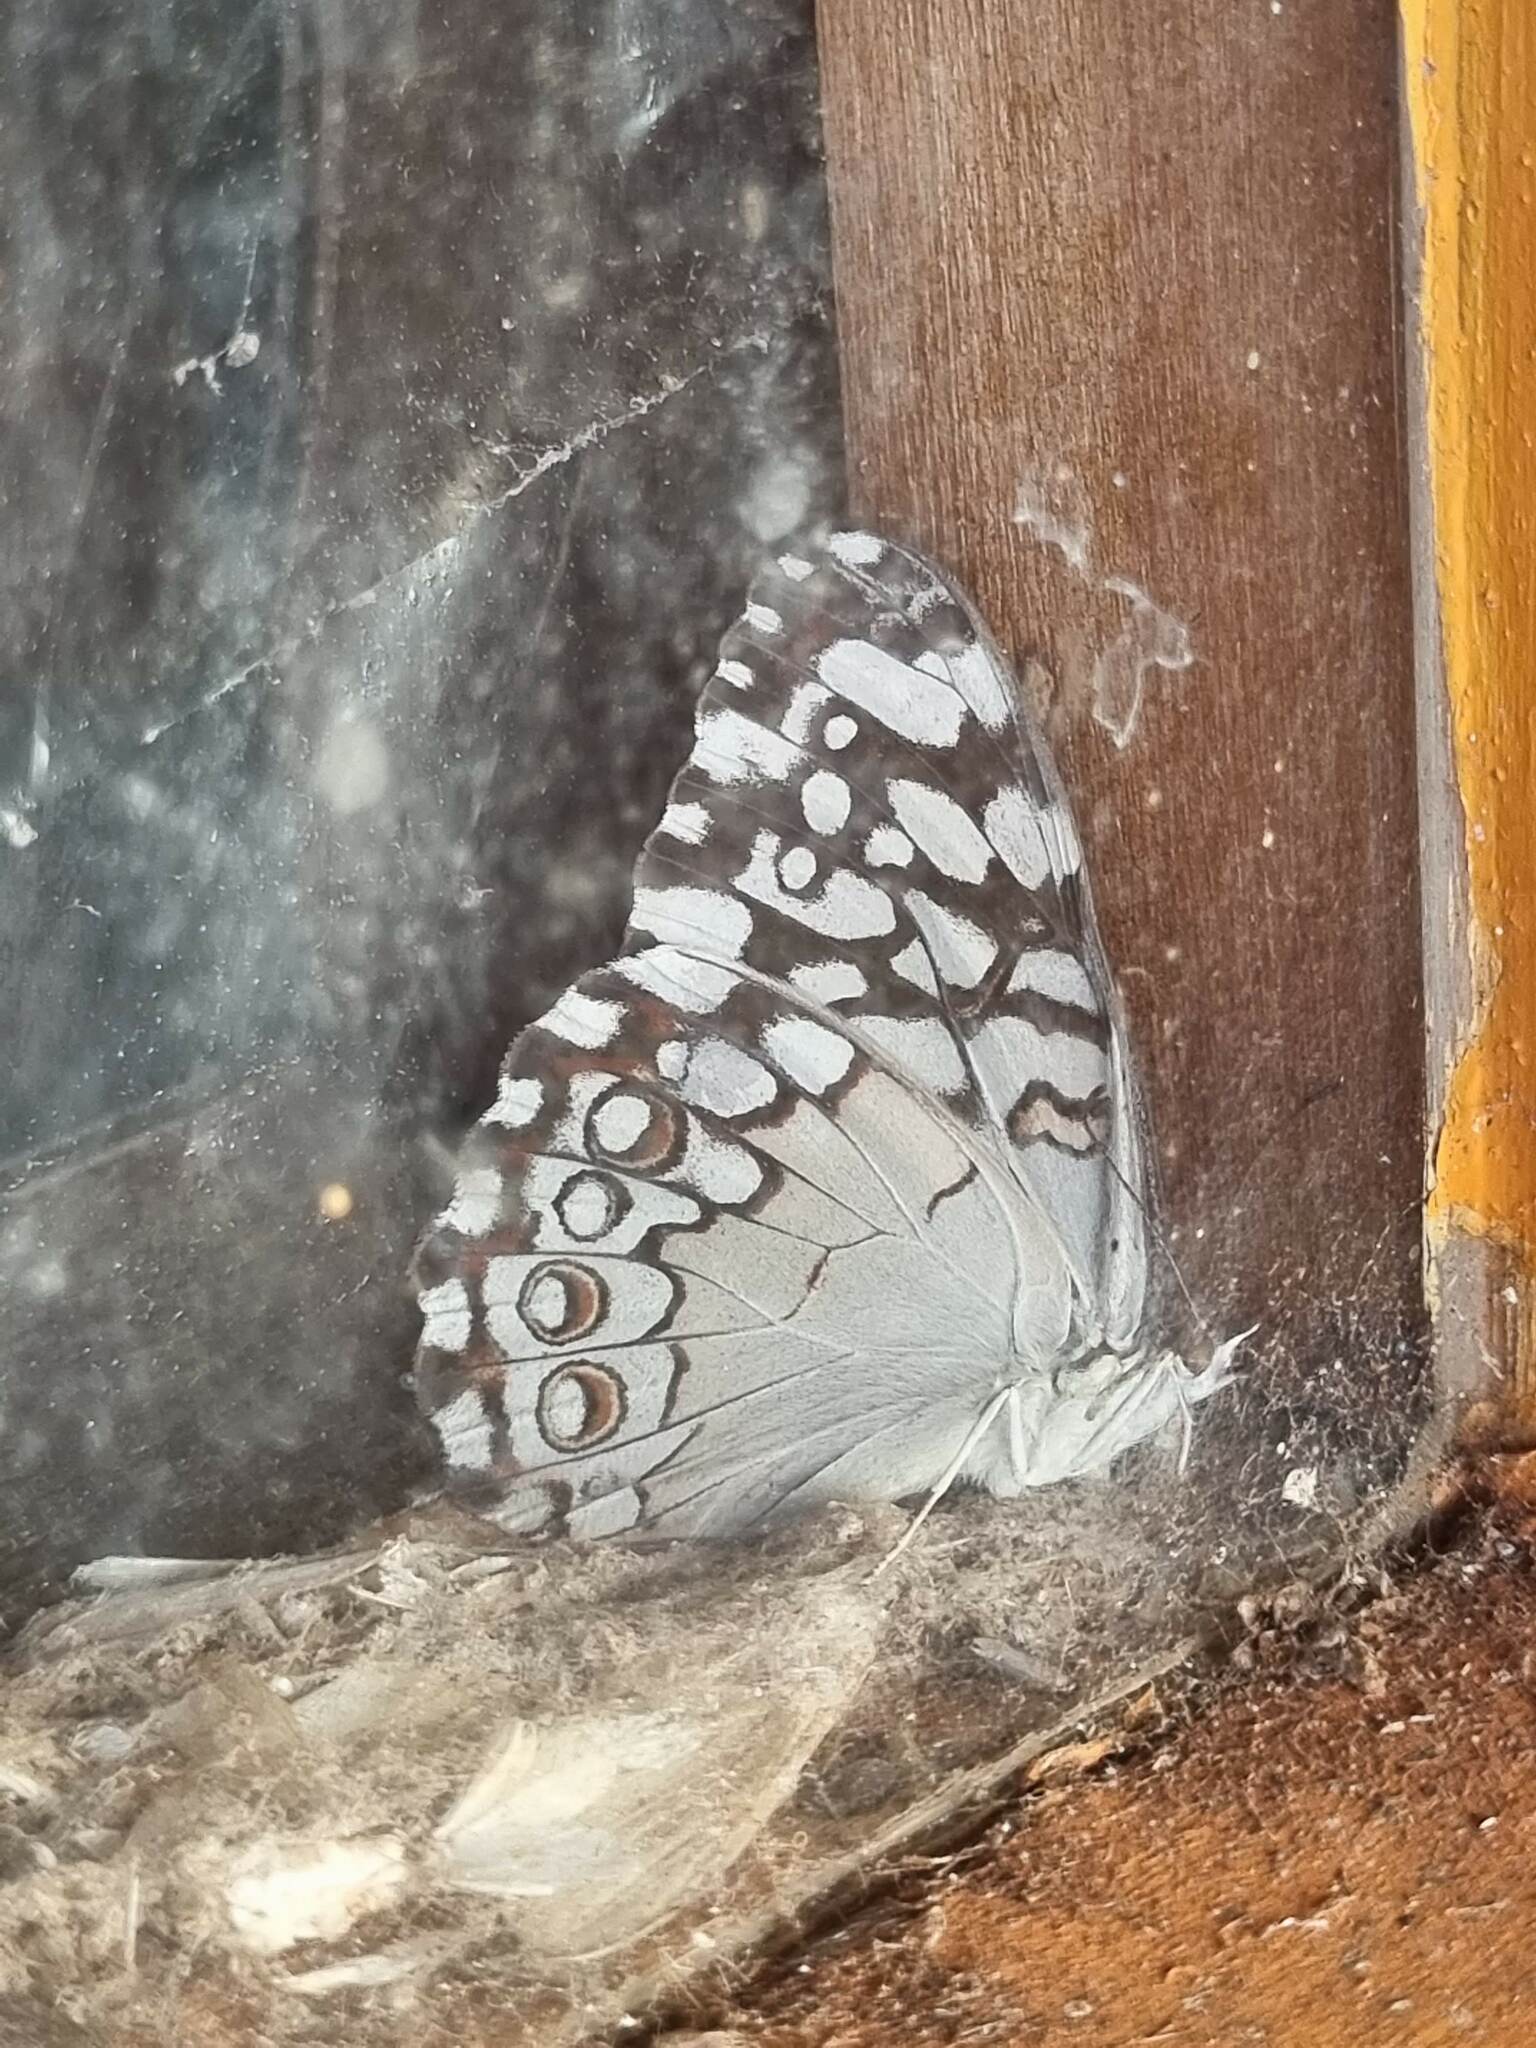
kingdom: Animalia
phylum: Arthropoda
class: Insecta
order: Lepidoptera
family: Nymphalidae
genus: Hamadryas
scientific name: Hamadryas februa
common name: Gray cracker
